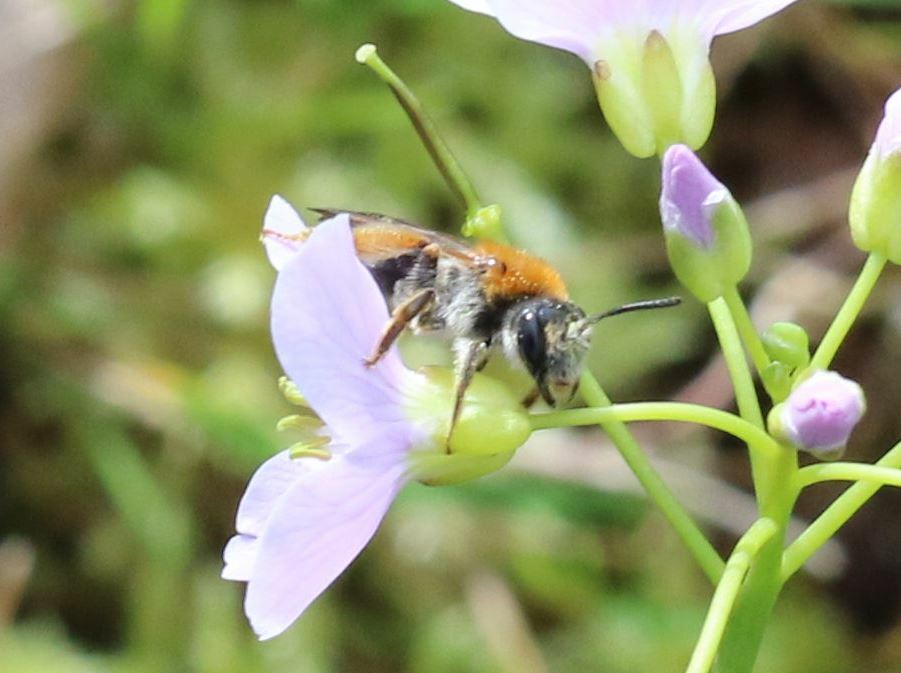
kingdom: Animalia
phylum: Arthropoda
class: Insecta
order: Hymenoptera
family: Andrenidae
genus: Andrena
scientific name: Andrena haemorrhoa
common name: Early mining bee
